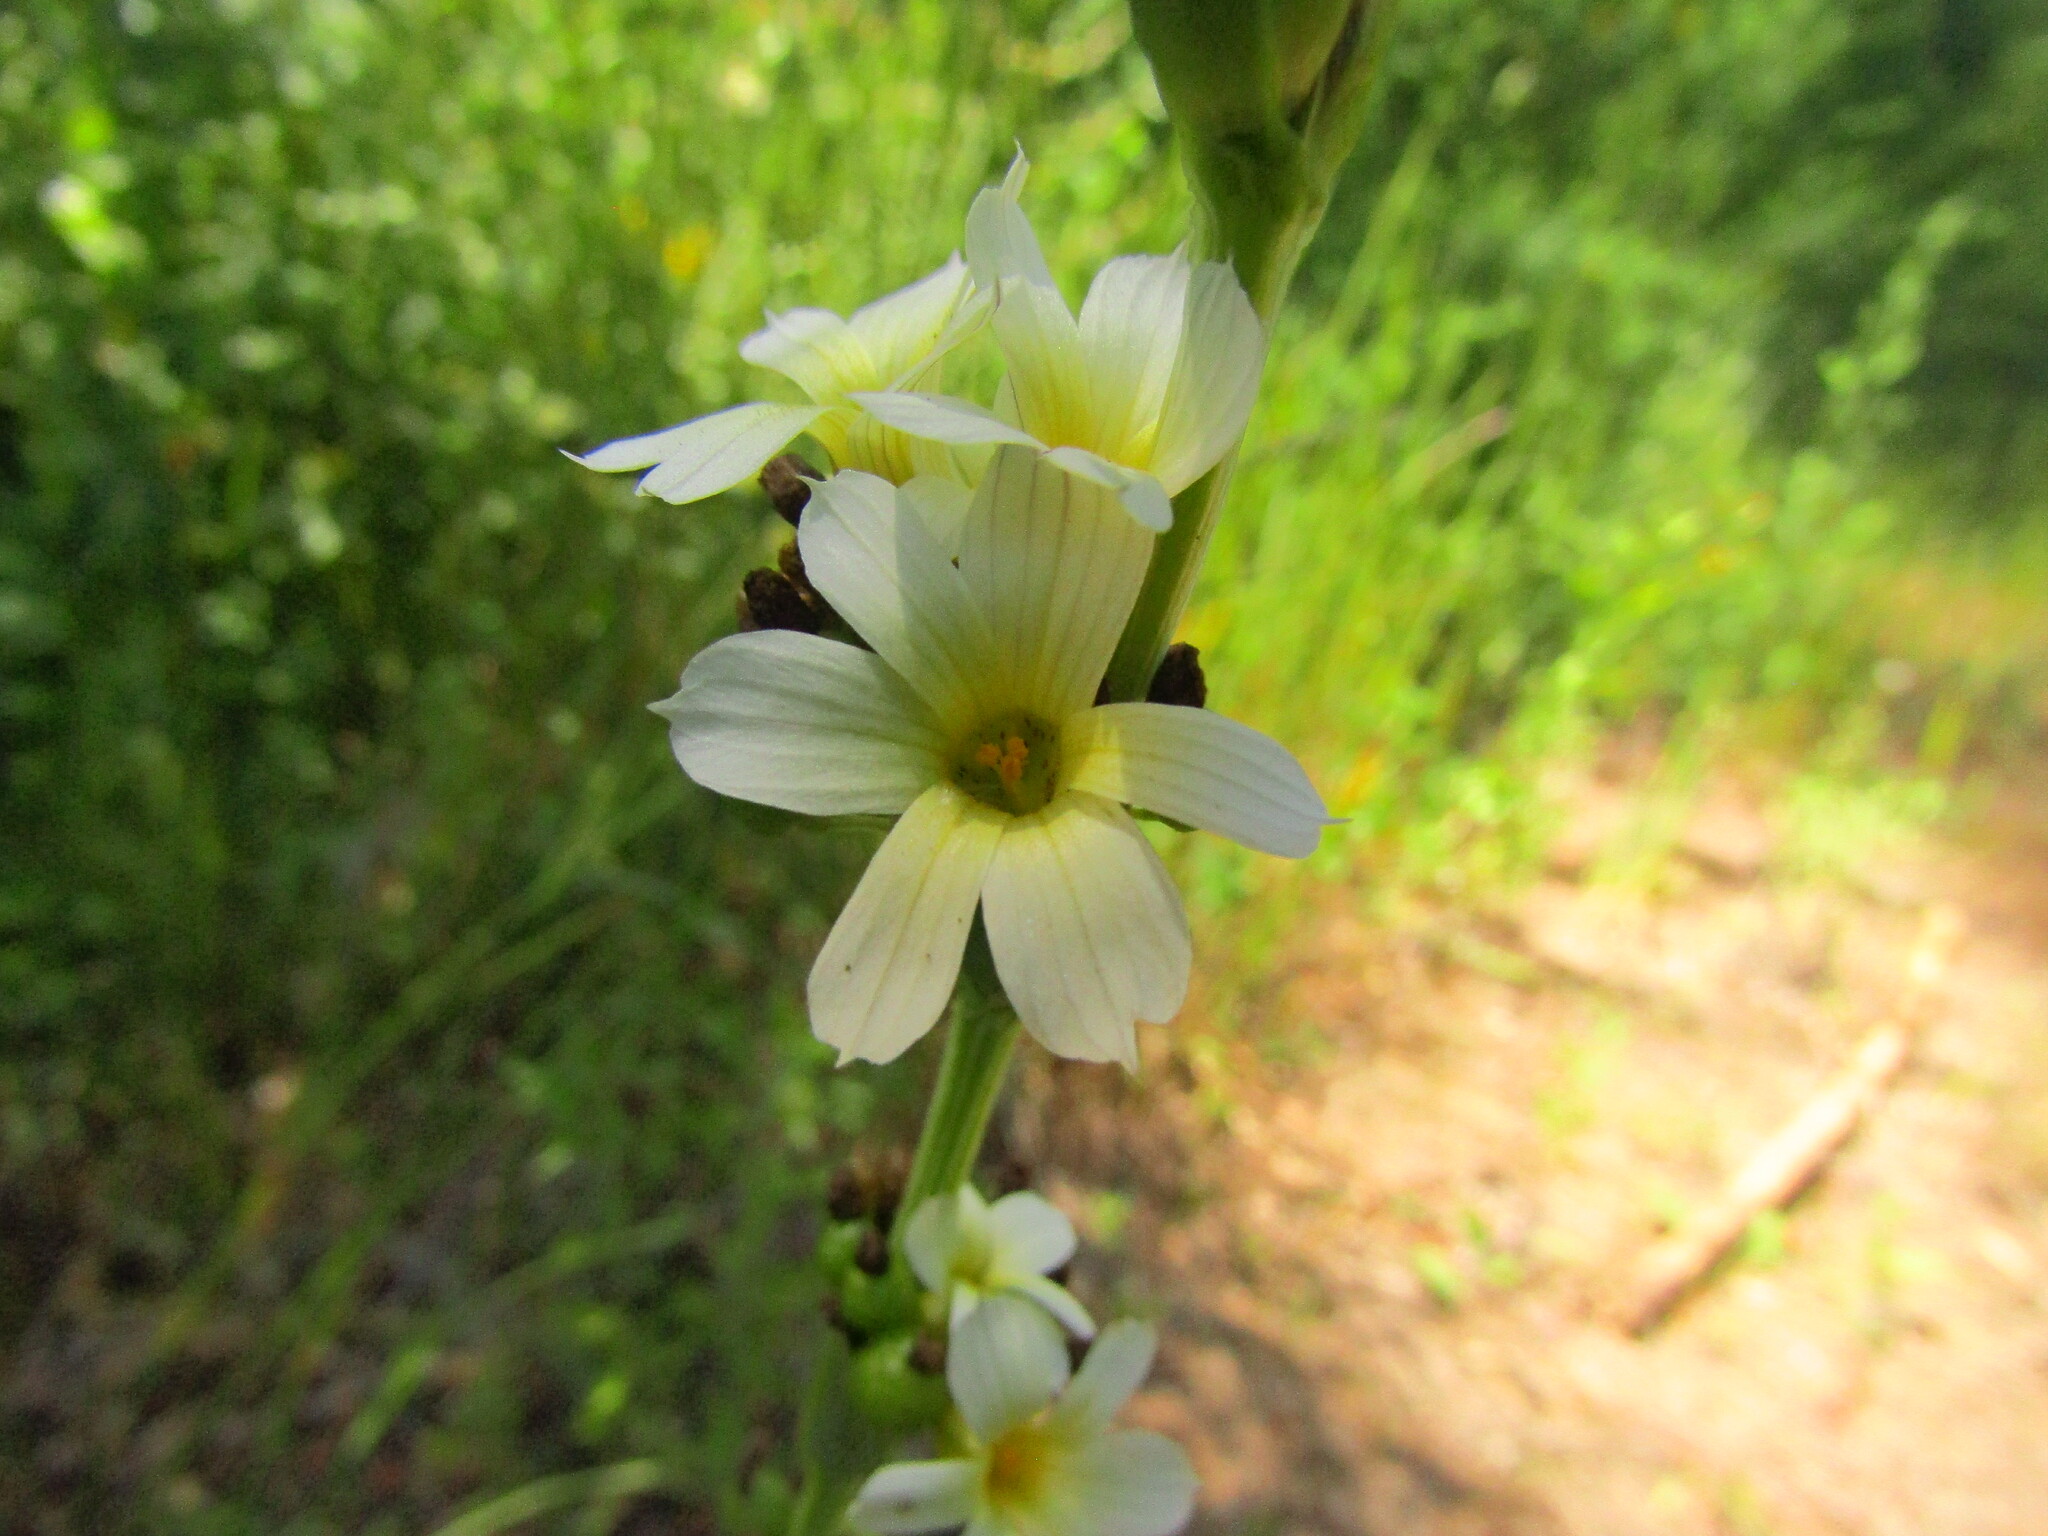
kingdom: Plantae
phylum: Tracheophyta
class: Liliopsida
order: Asparagales
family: Iridaceae
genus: Sisyrinchium
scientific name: Sisyrinchium striatum
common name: Pale yellow-eyed-grass
